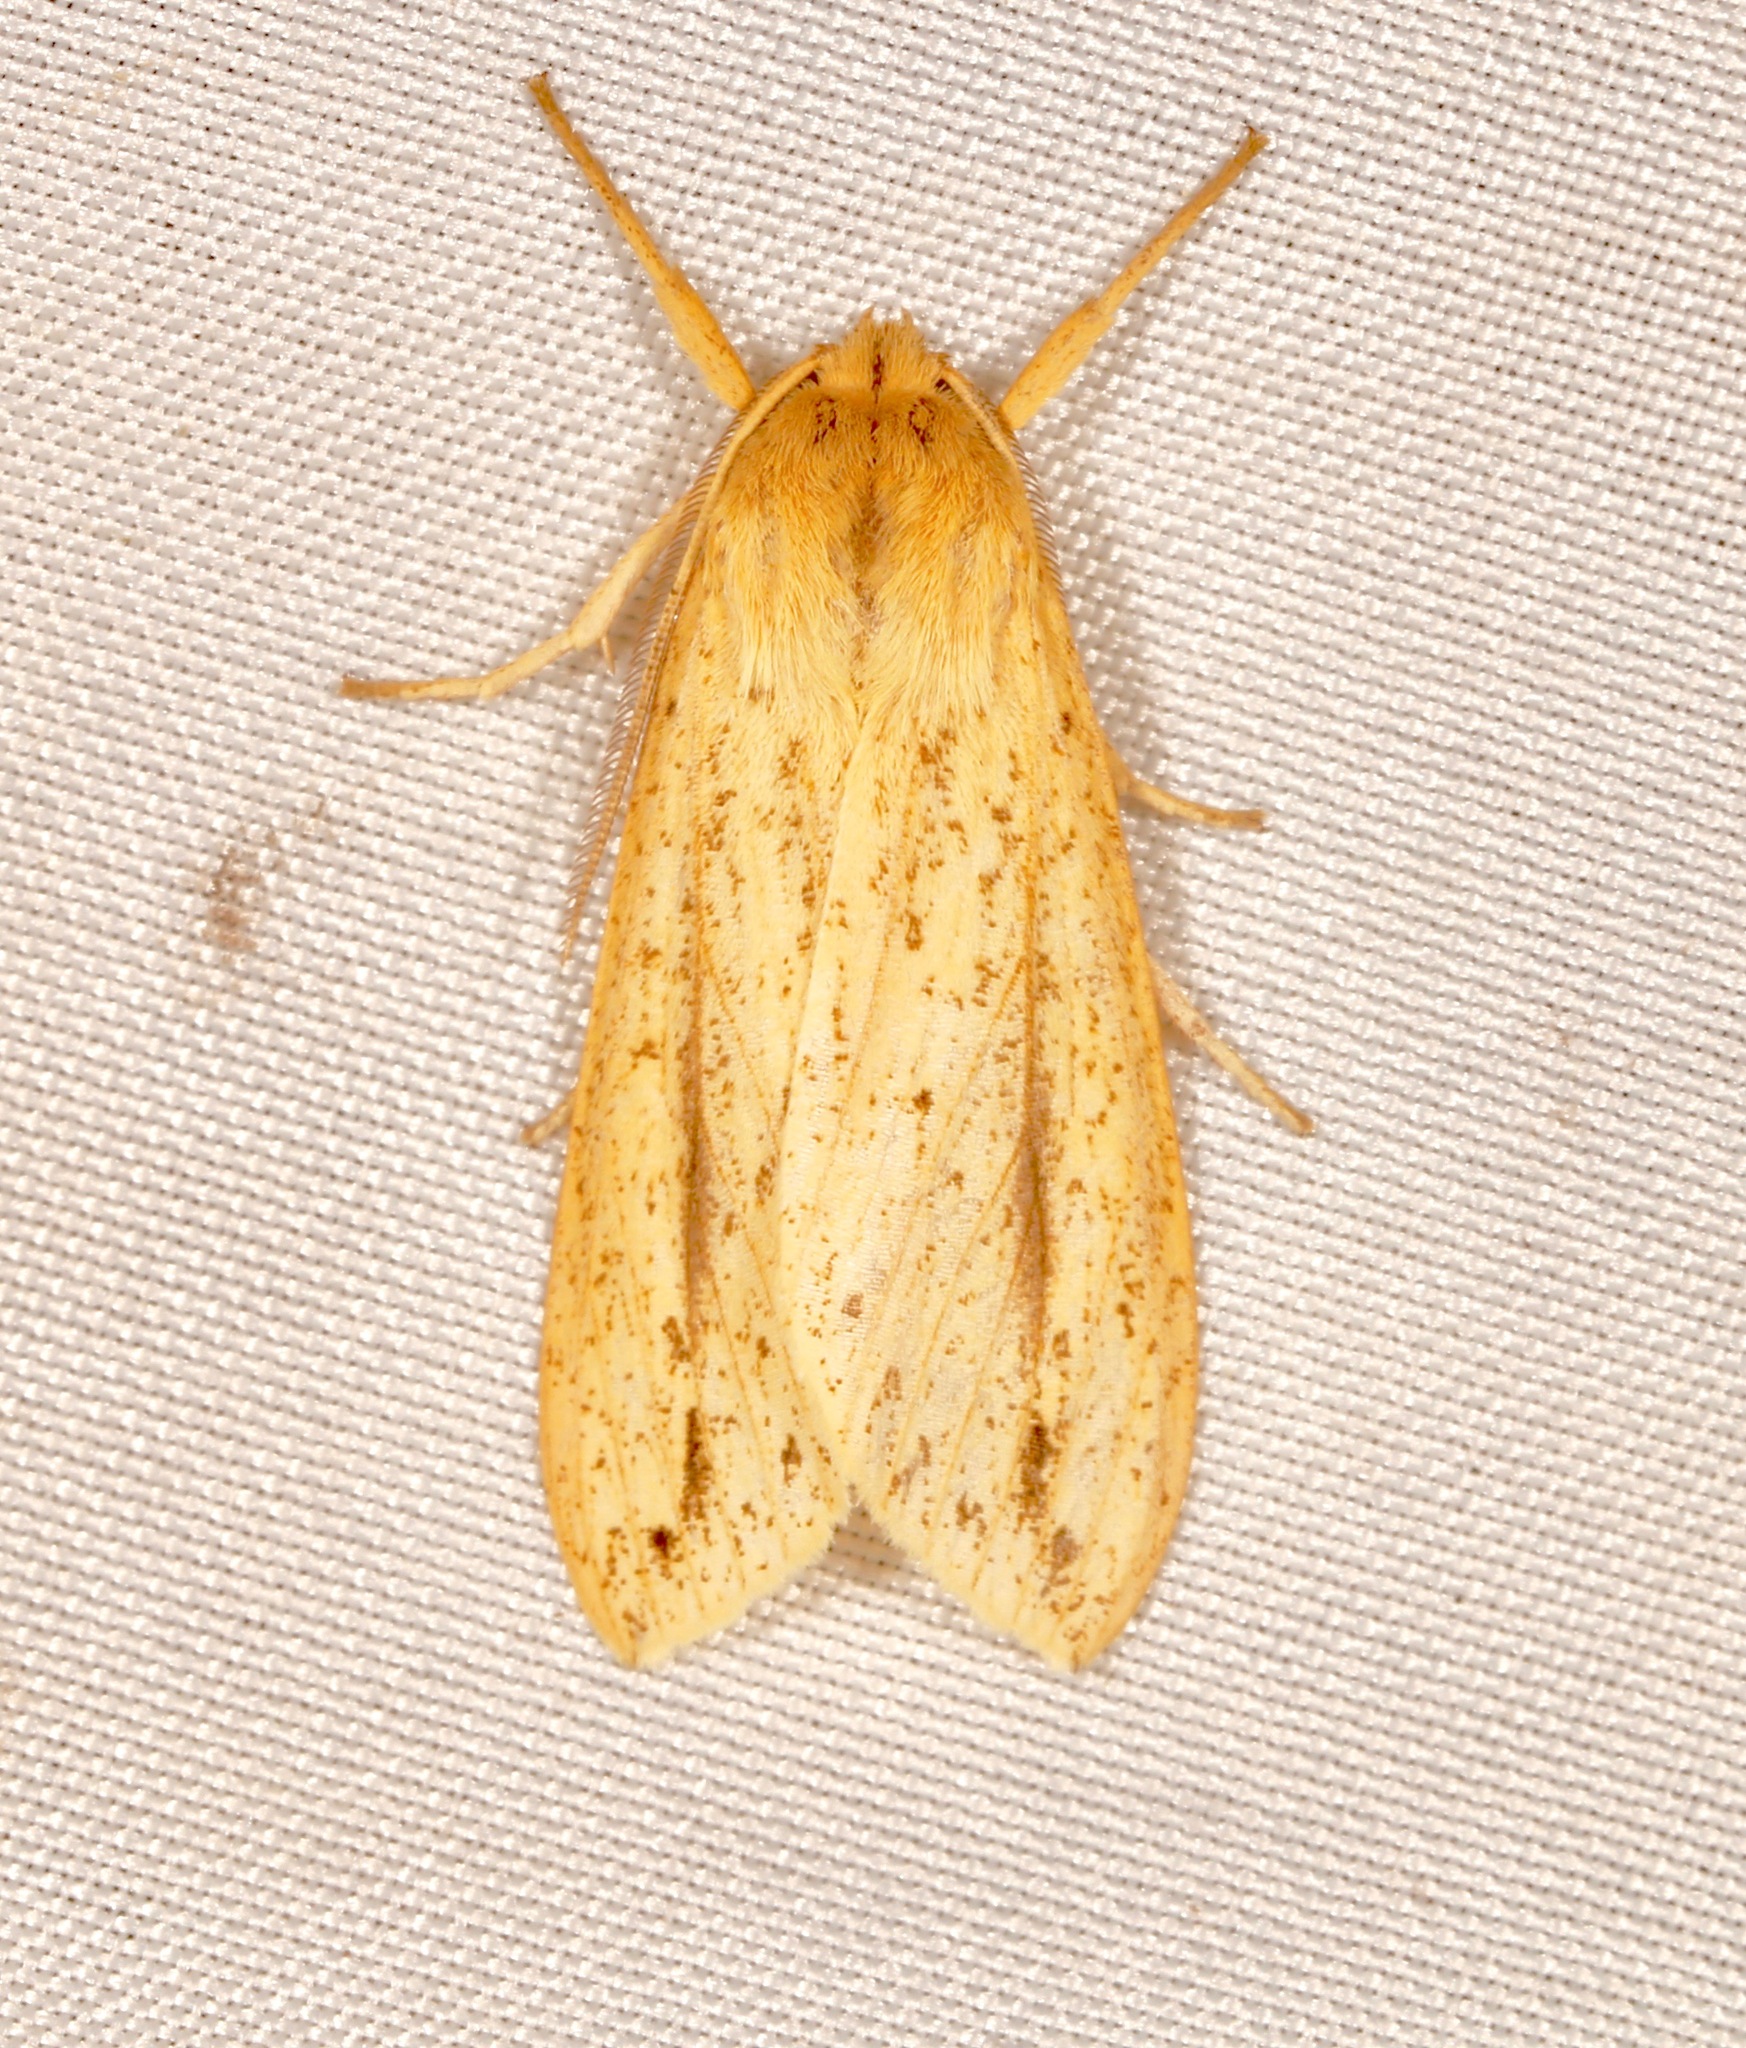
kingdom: Animalia
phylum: Arthropoda
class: Insecta
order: Lepidoptera
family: Erebidae
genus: Leucanopsis
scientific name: Leucanopsis longa
